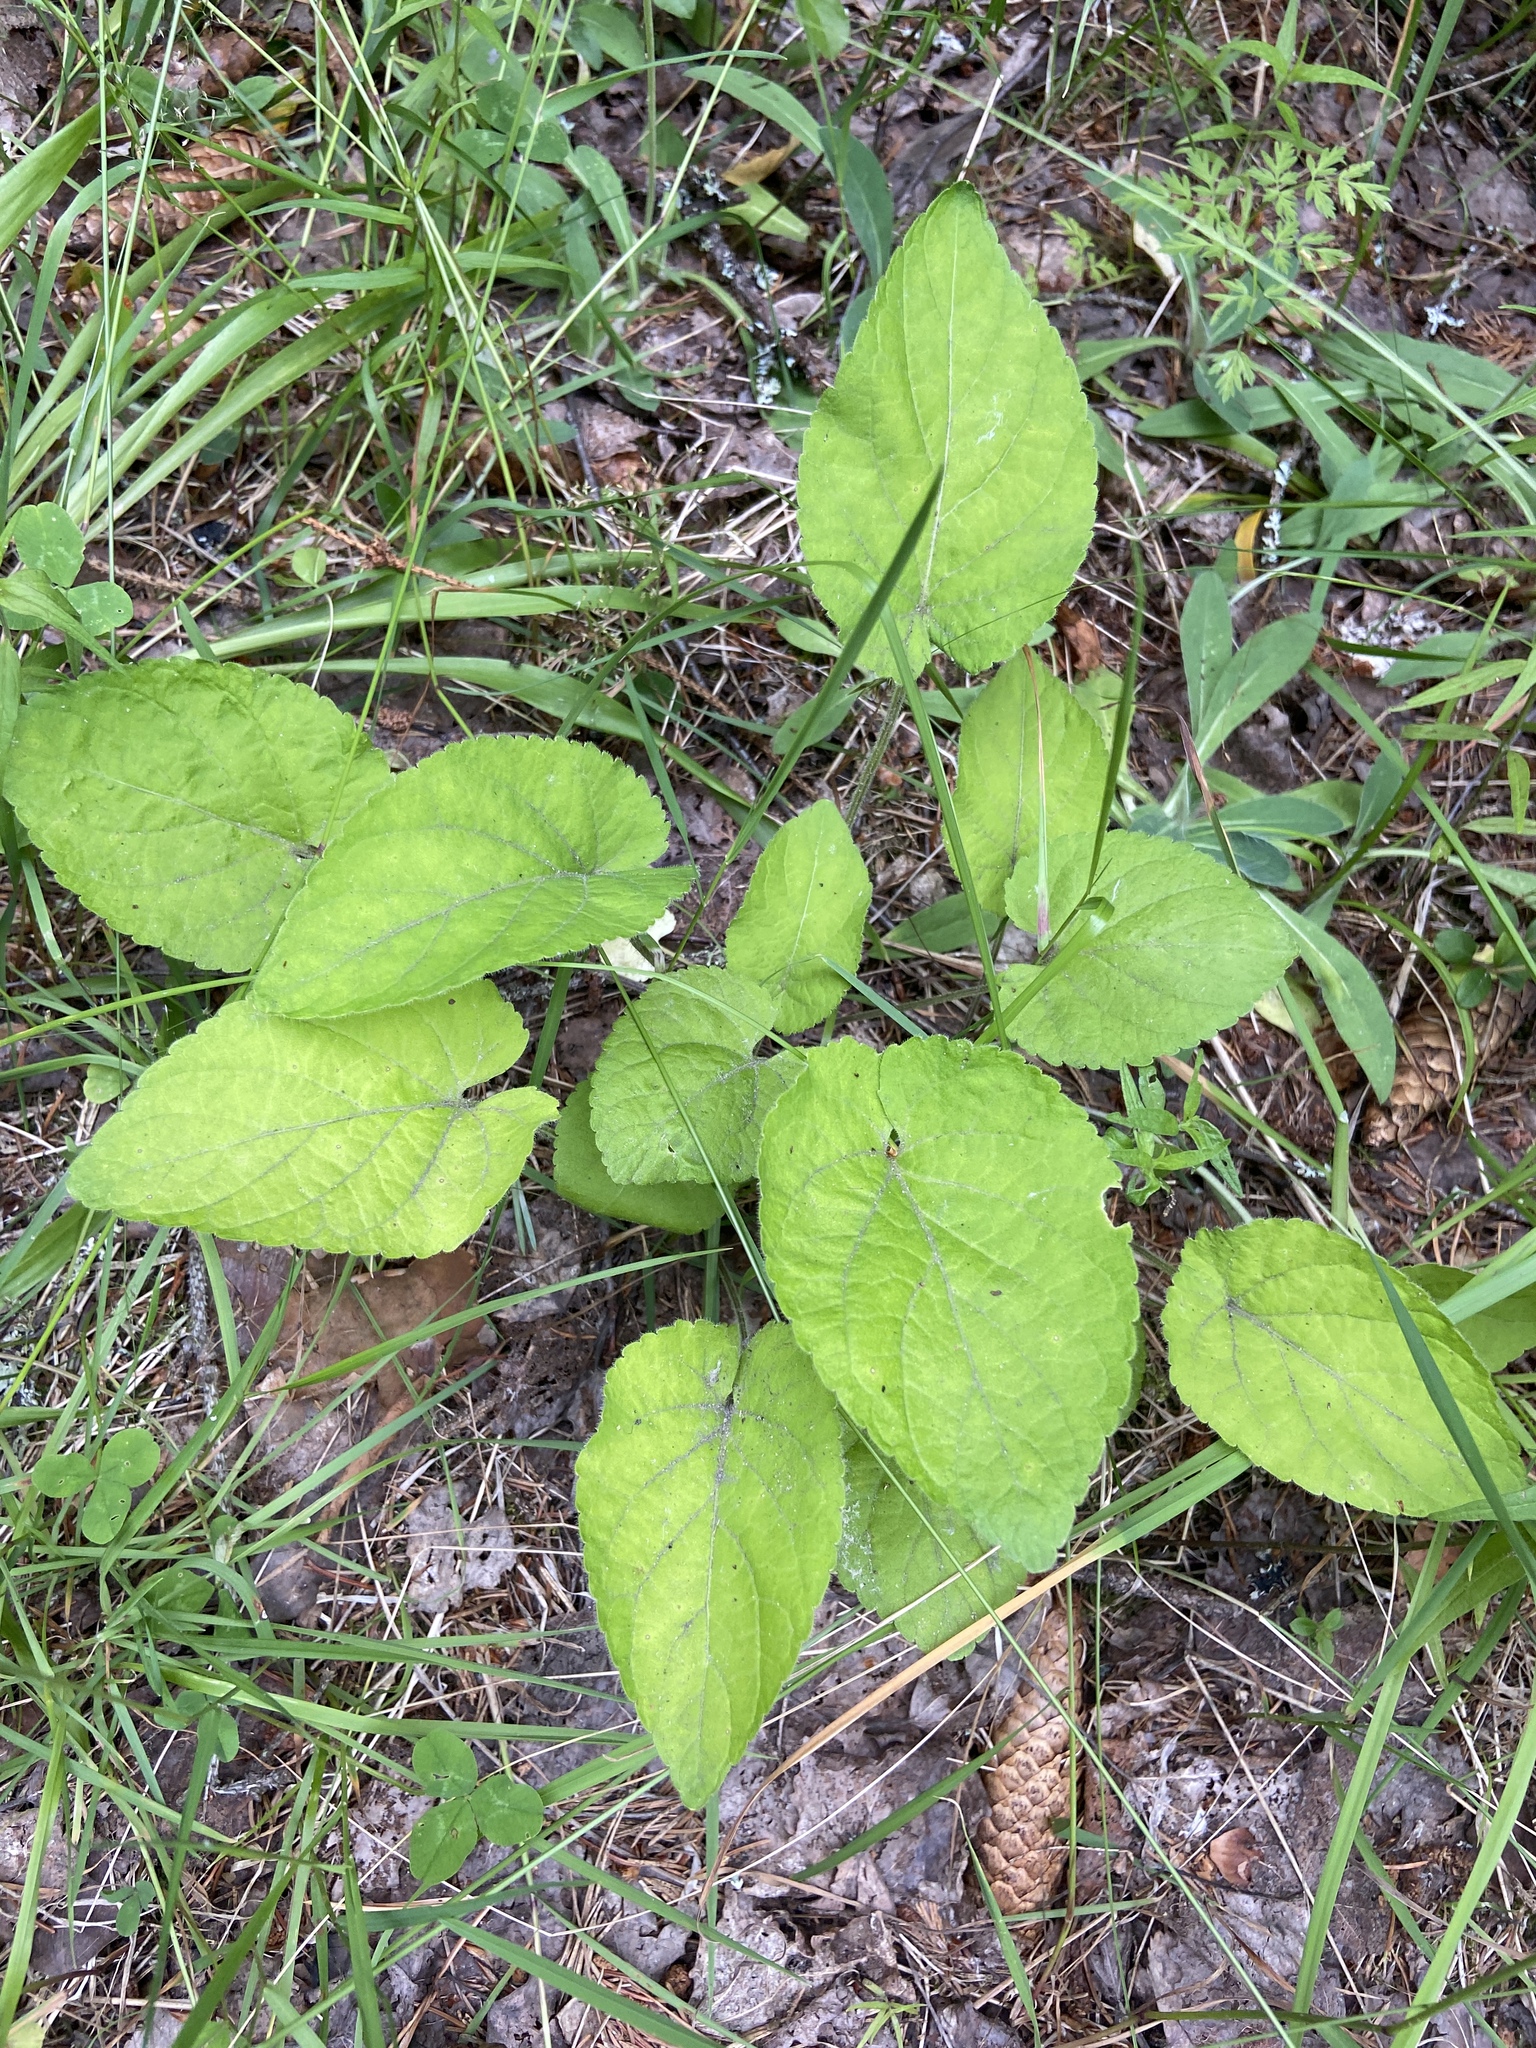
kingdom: Plantae
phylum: Tracheophyta
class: Magnoliopsida
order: Malpighiales
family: Violaceae
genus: Viola
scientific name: Viola hirta
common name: Hairy violet
